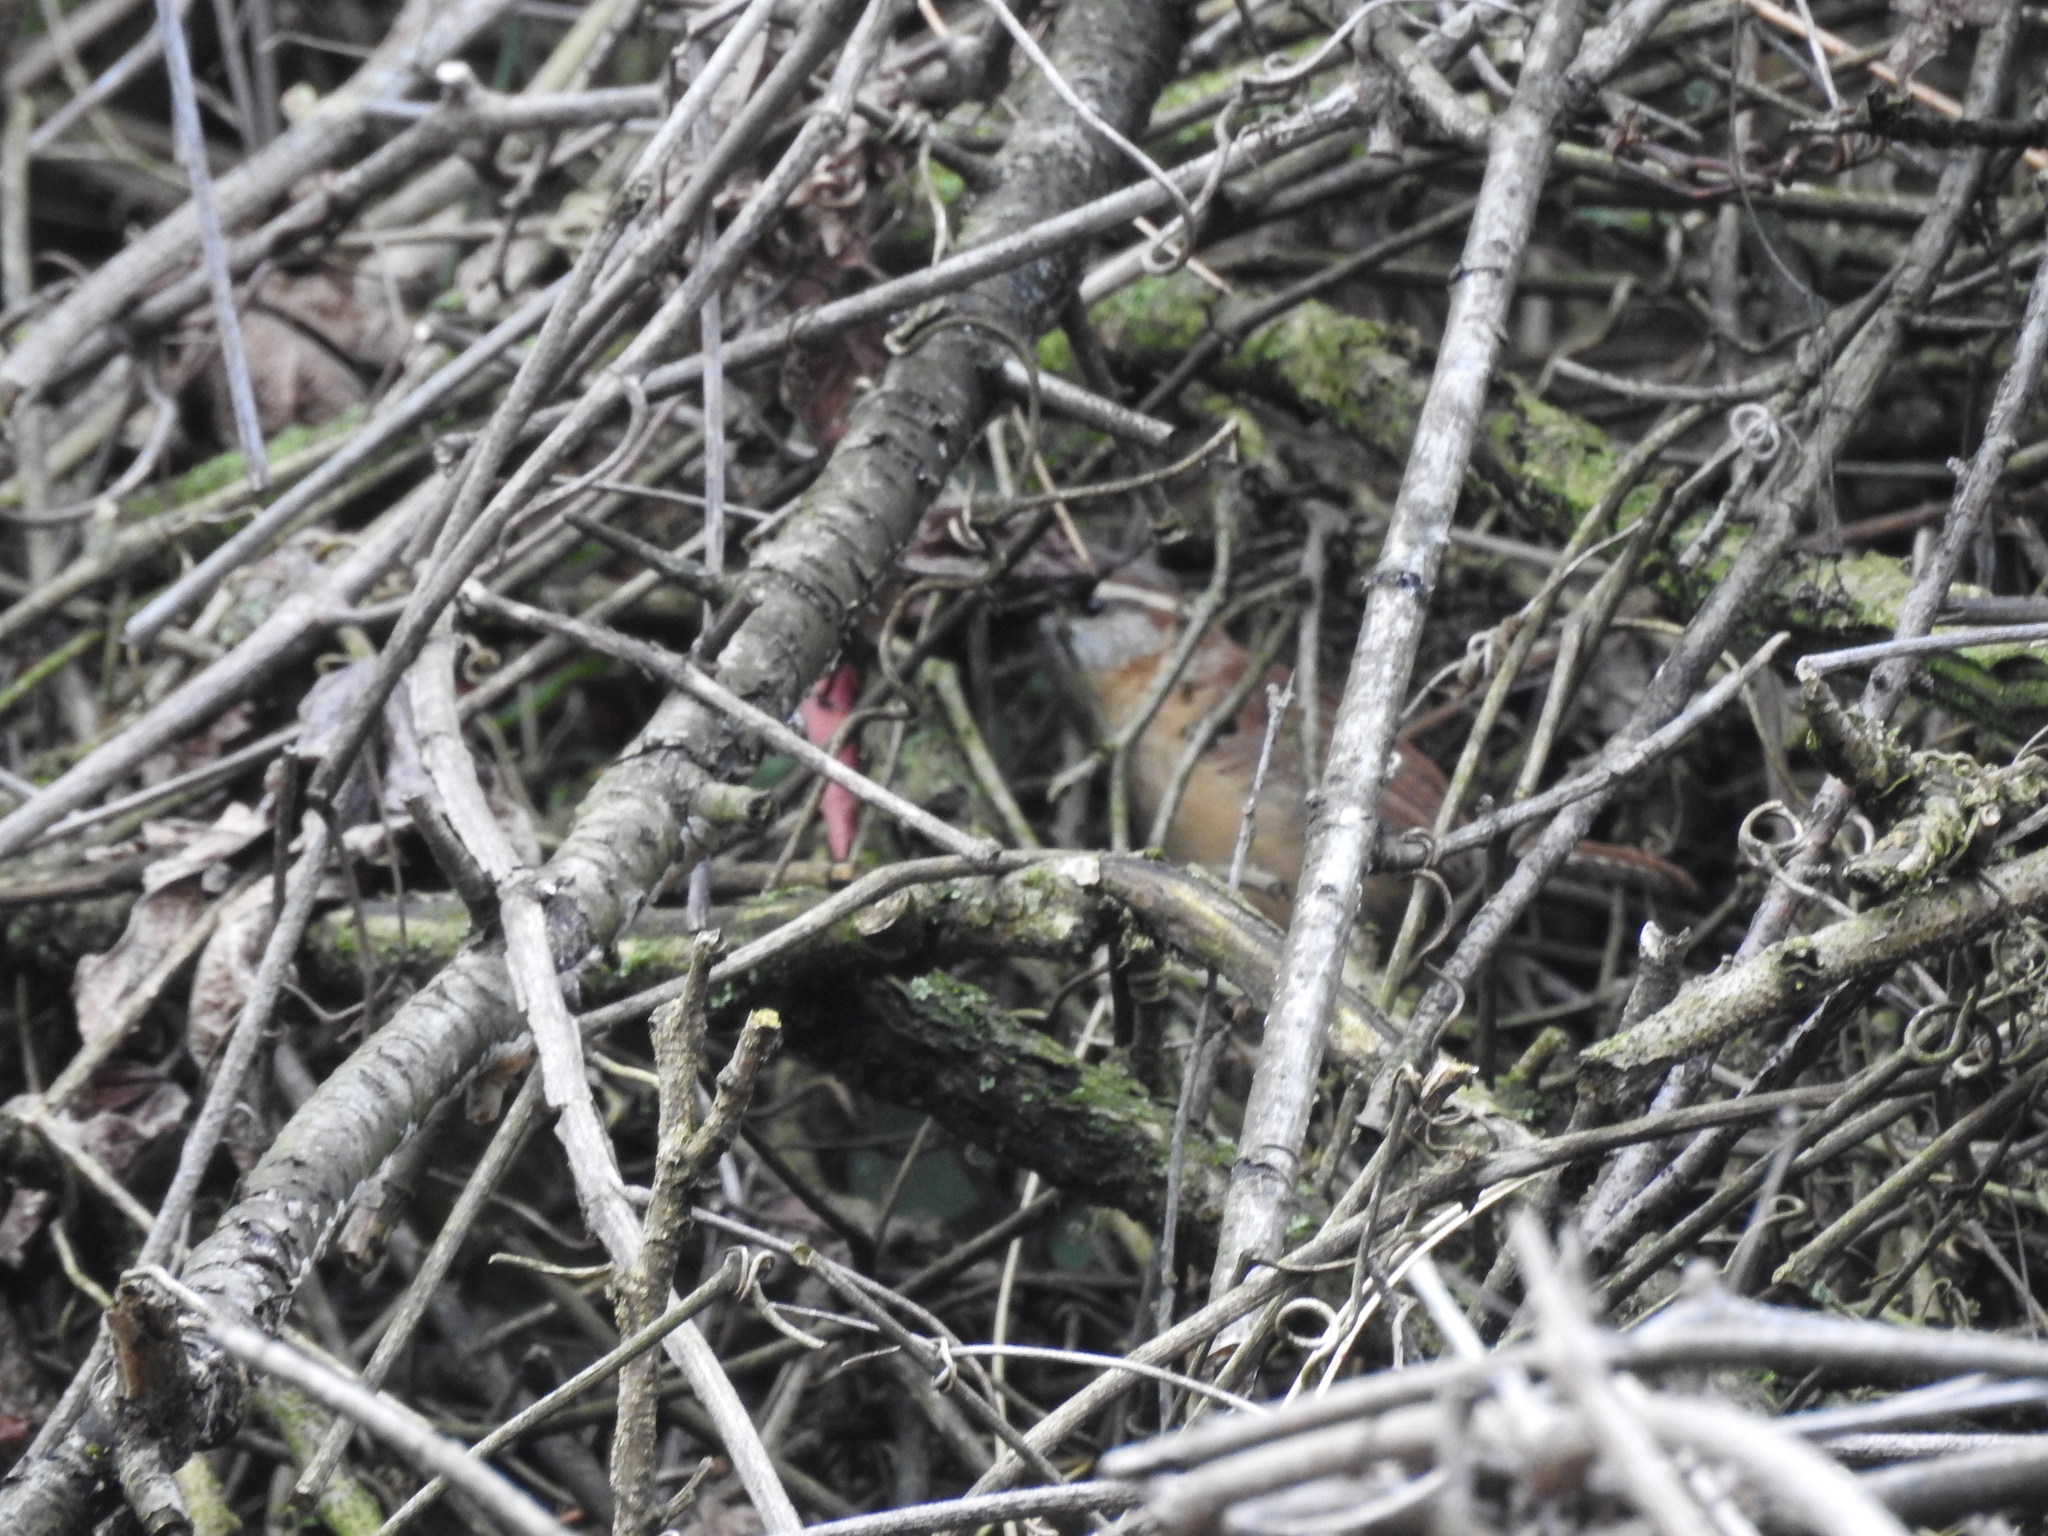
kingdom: Animalia
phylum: Chordata
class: Aves
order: Passeriformes
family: Troglodytidae
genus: Thryothorus
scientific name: Thryothorus ludovicianus
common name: Carolina wren
